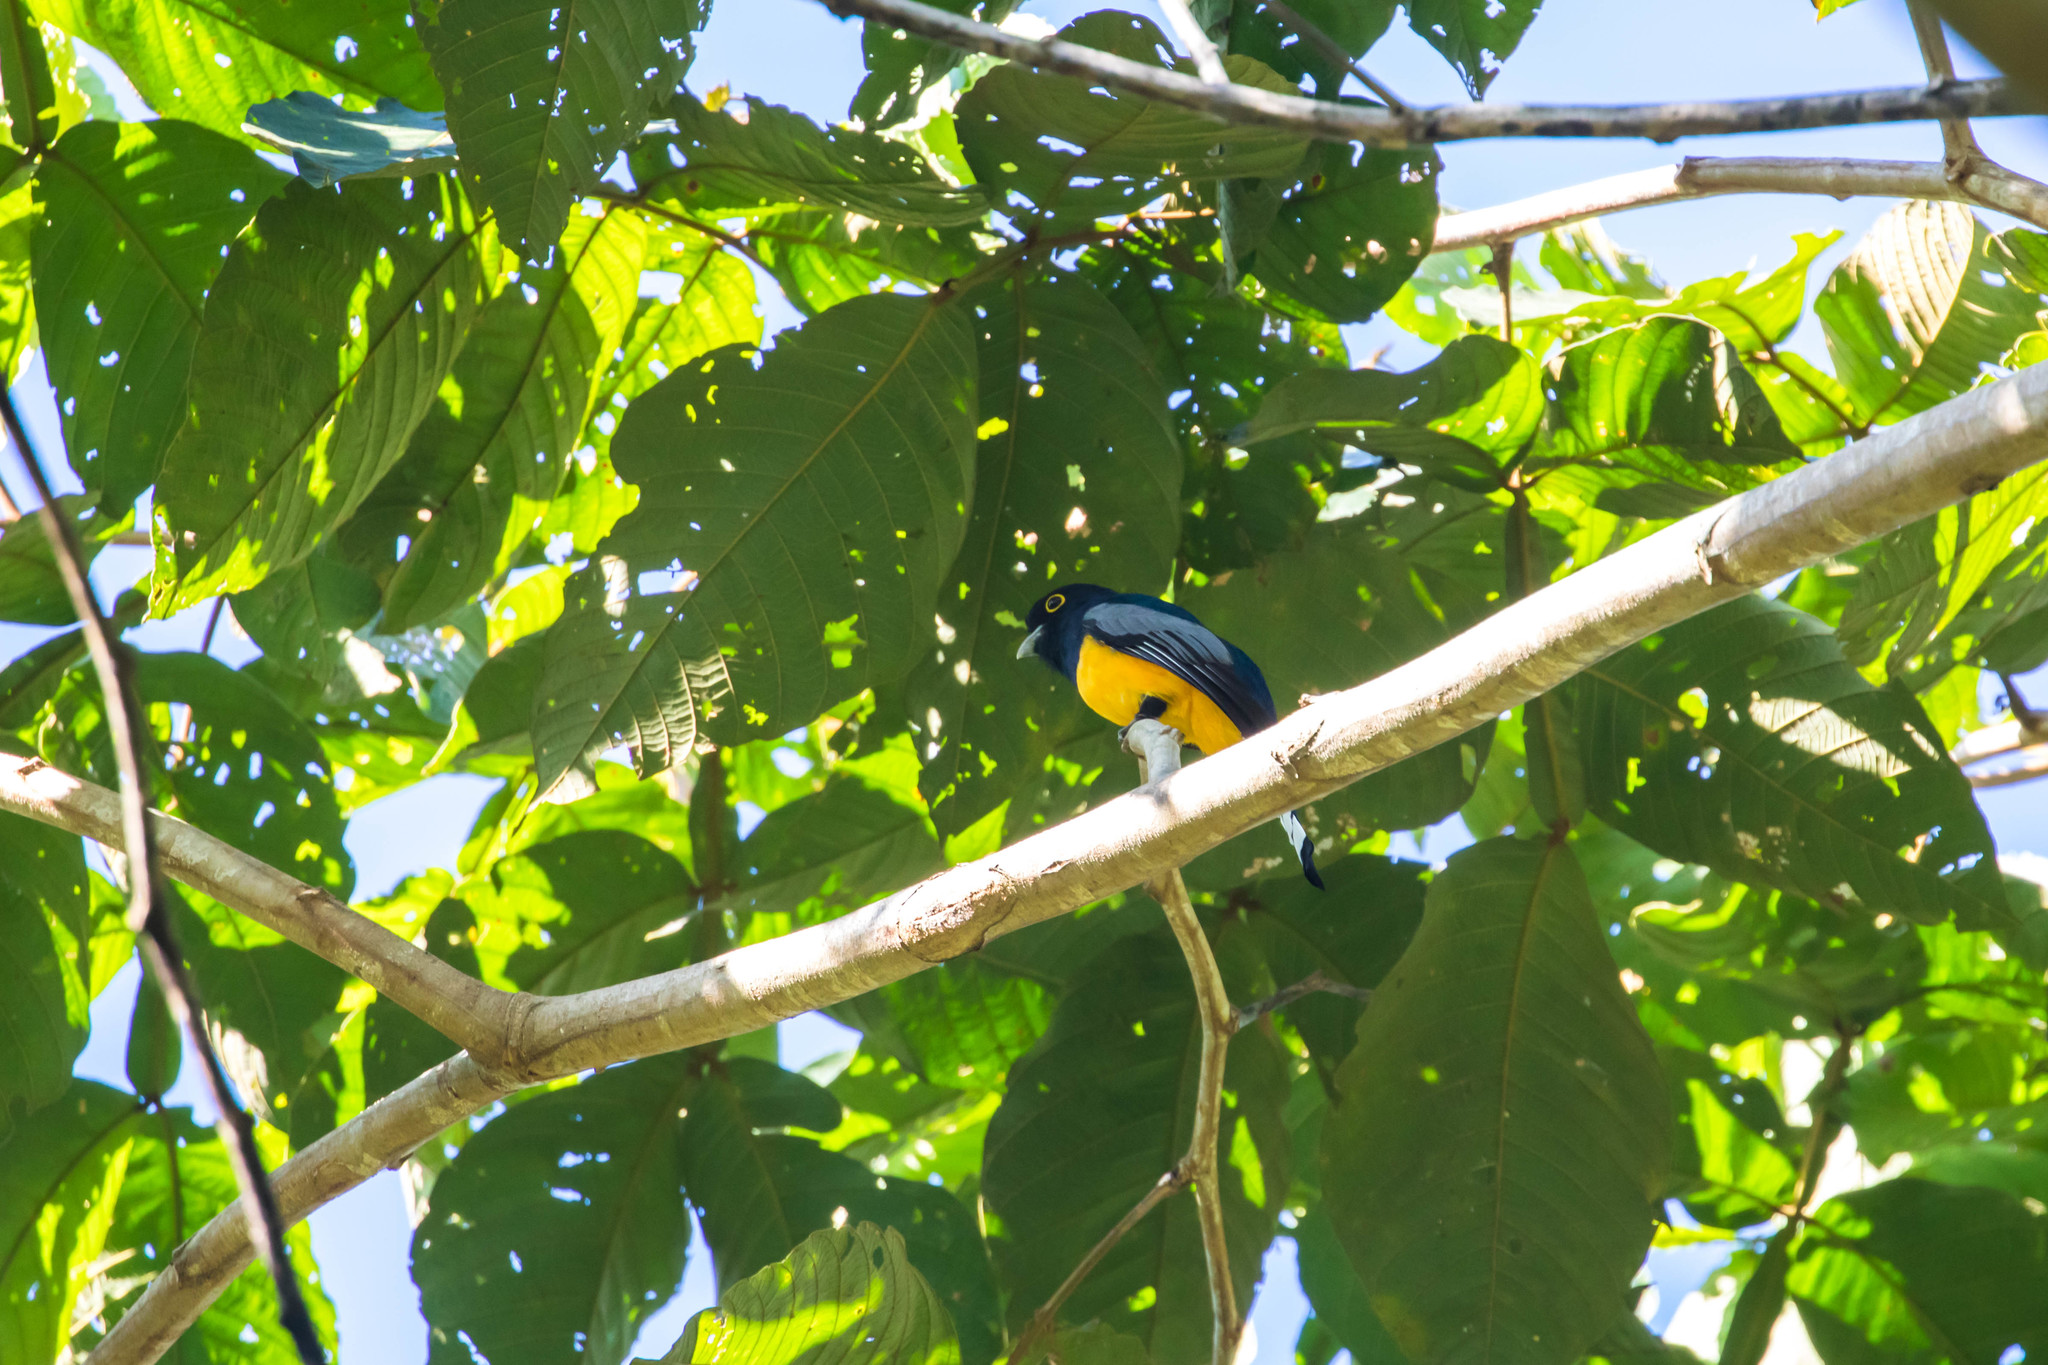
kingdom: Animalia
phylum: Chordata
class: Aves
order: Trogoniformes
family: Trogonidae
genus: Trogon
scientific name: Trogon caligatus
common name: Gartered trogon
